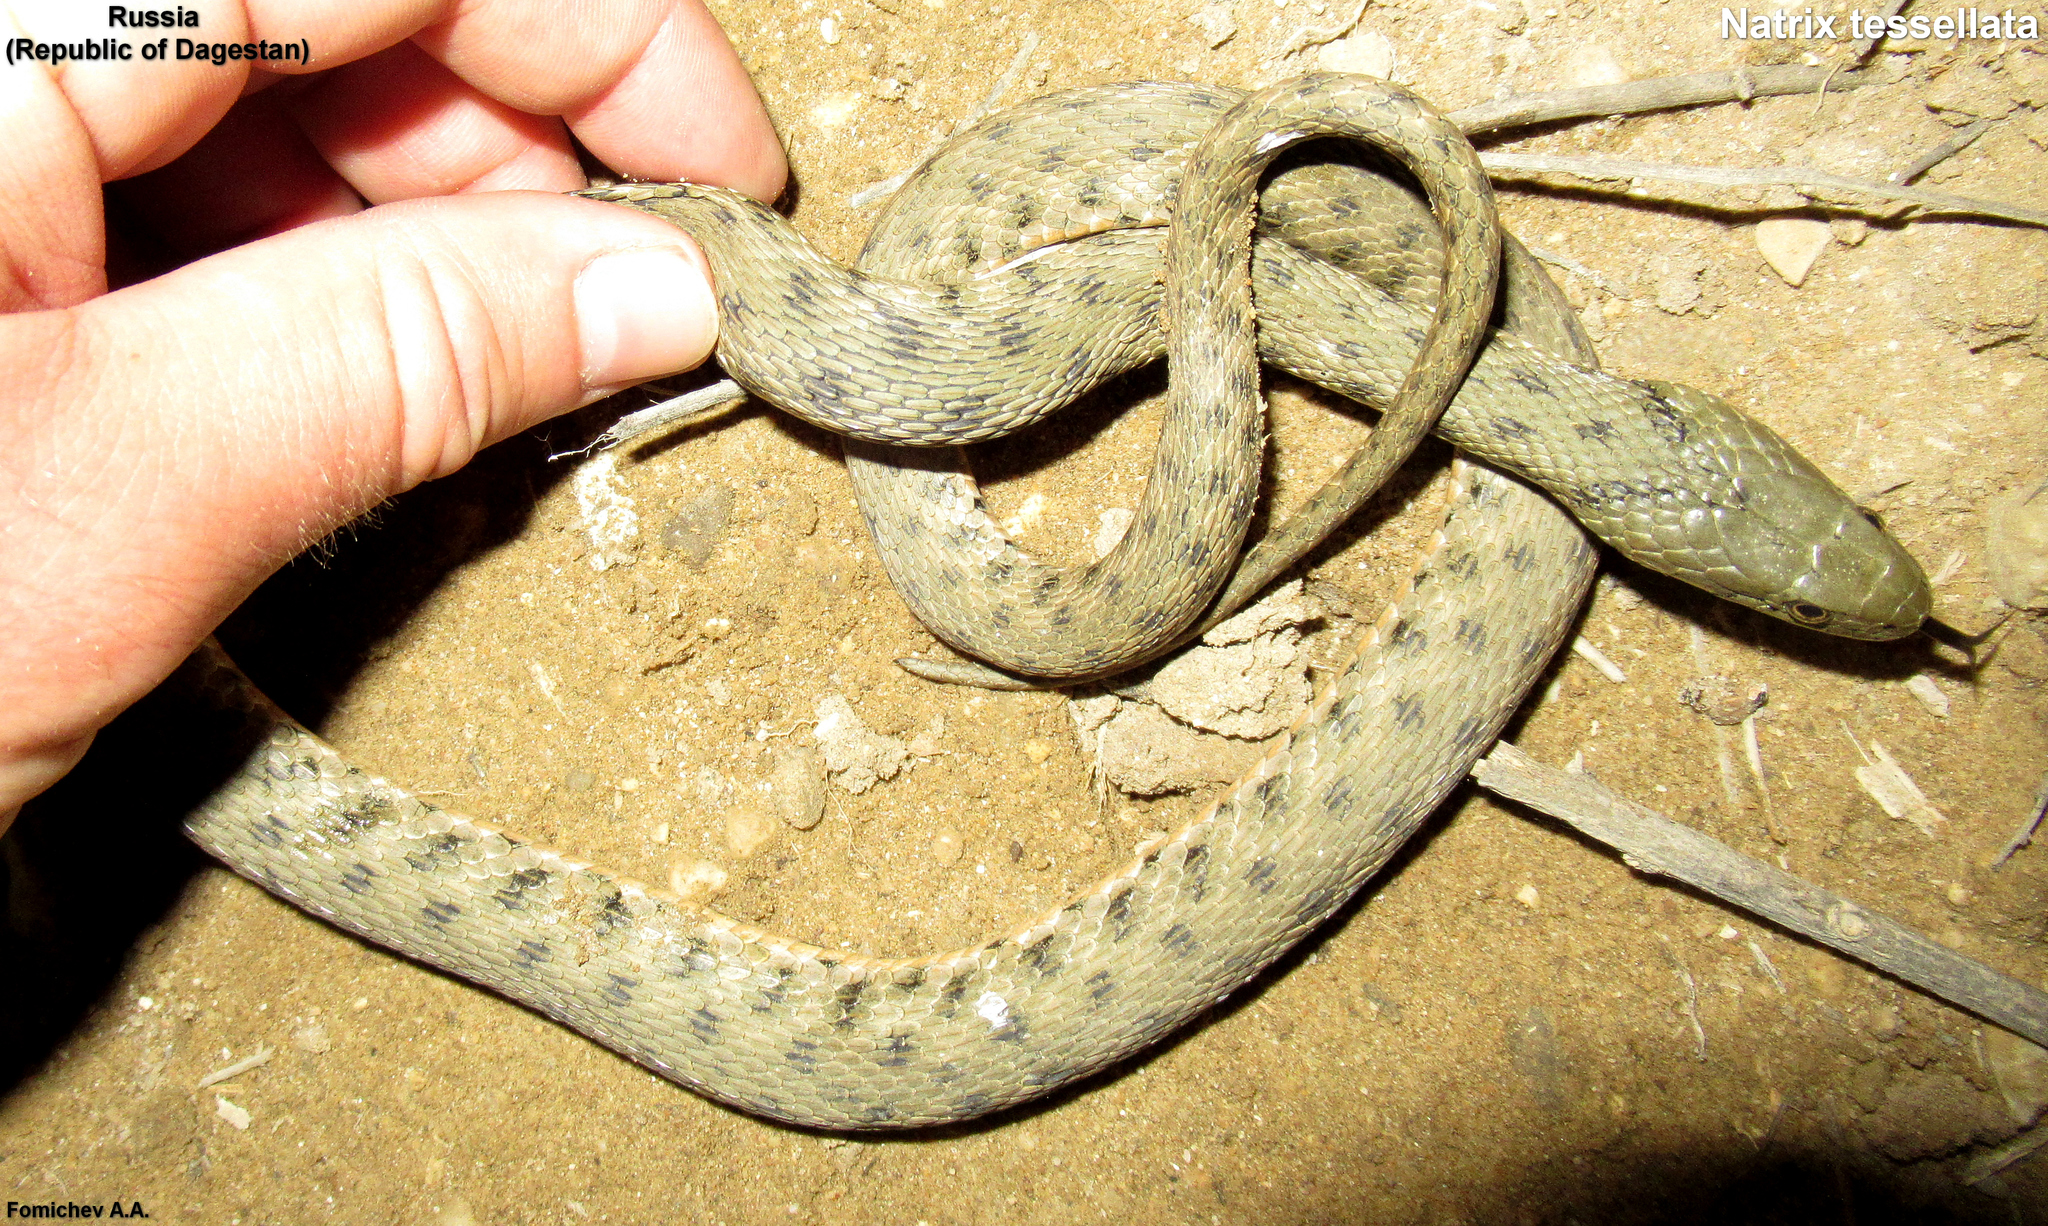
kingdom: Animalia
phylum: Chordata
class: Squamata
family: Colubridae
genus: Natrix
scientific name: Natrix tessellata
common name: Dice snake
